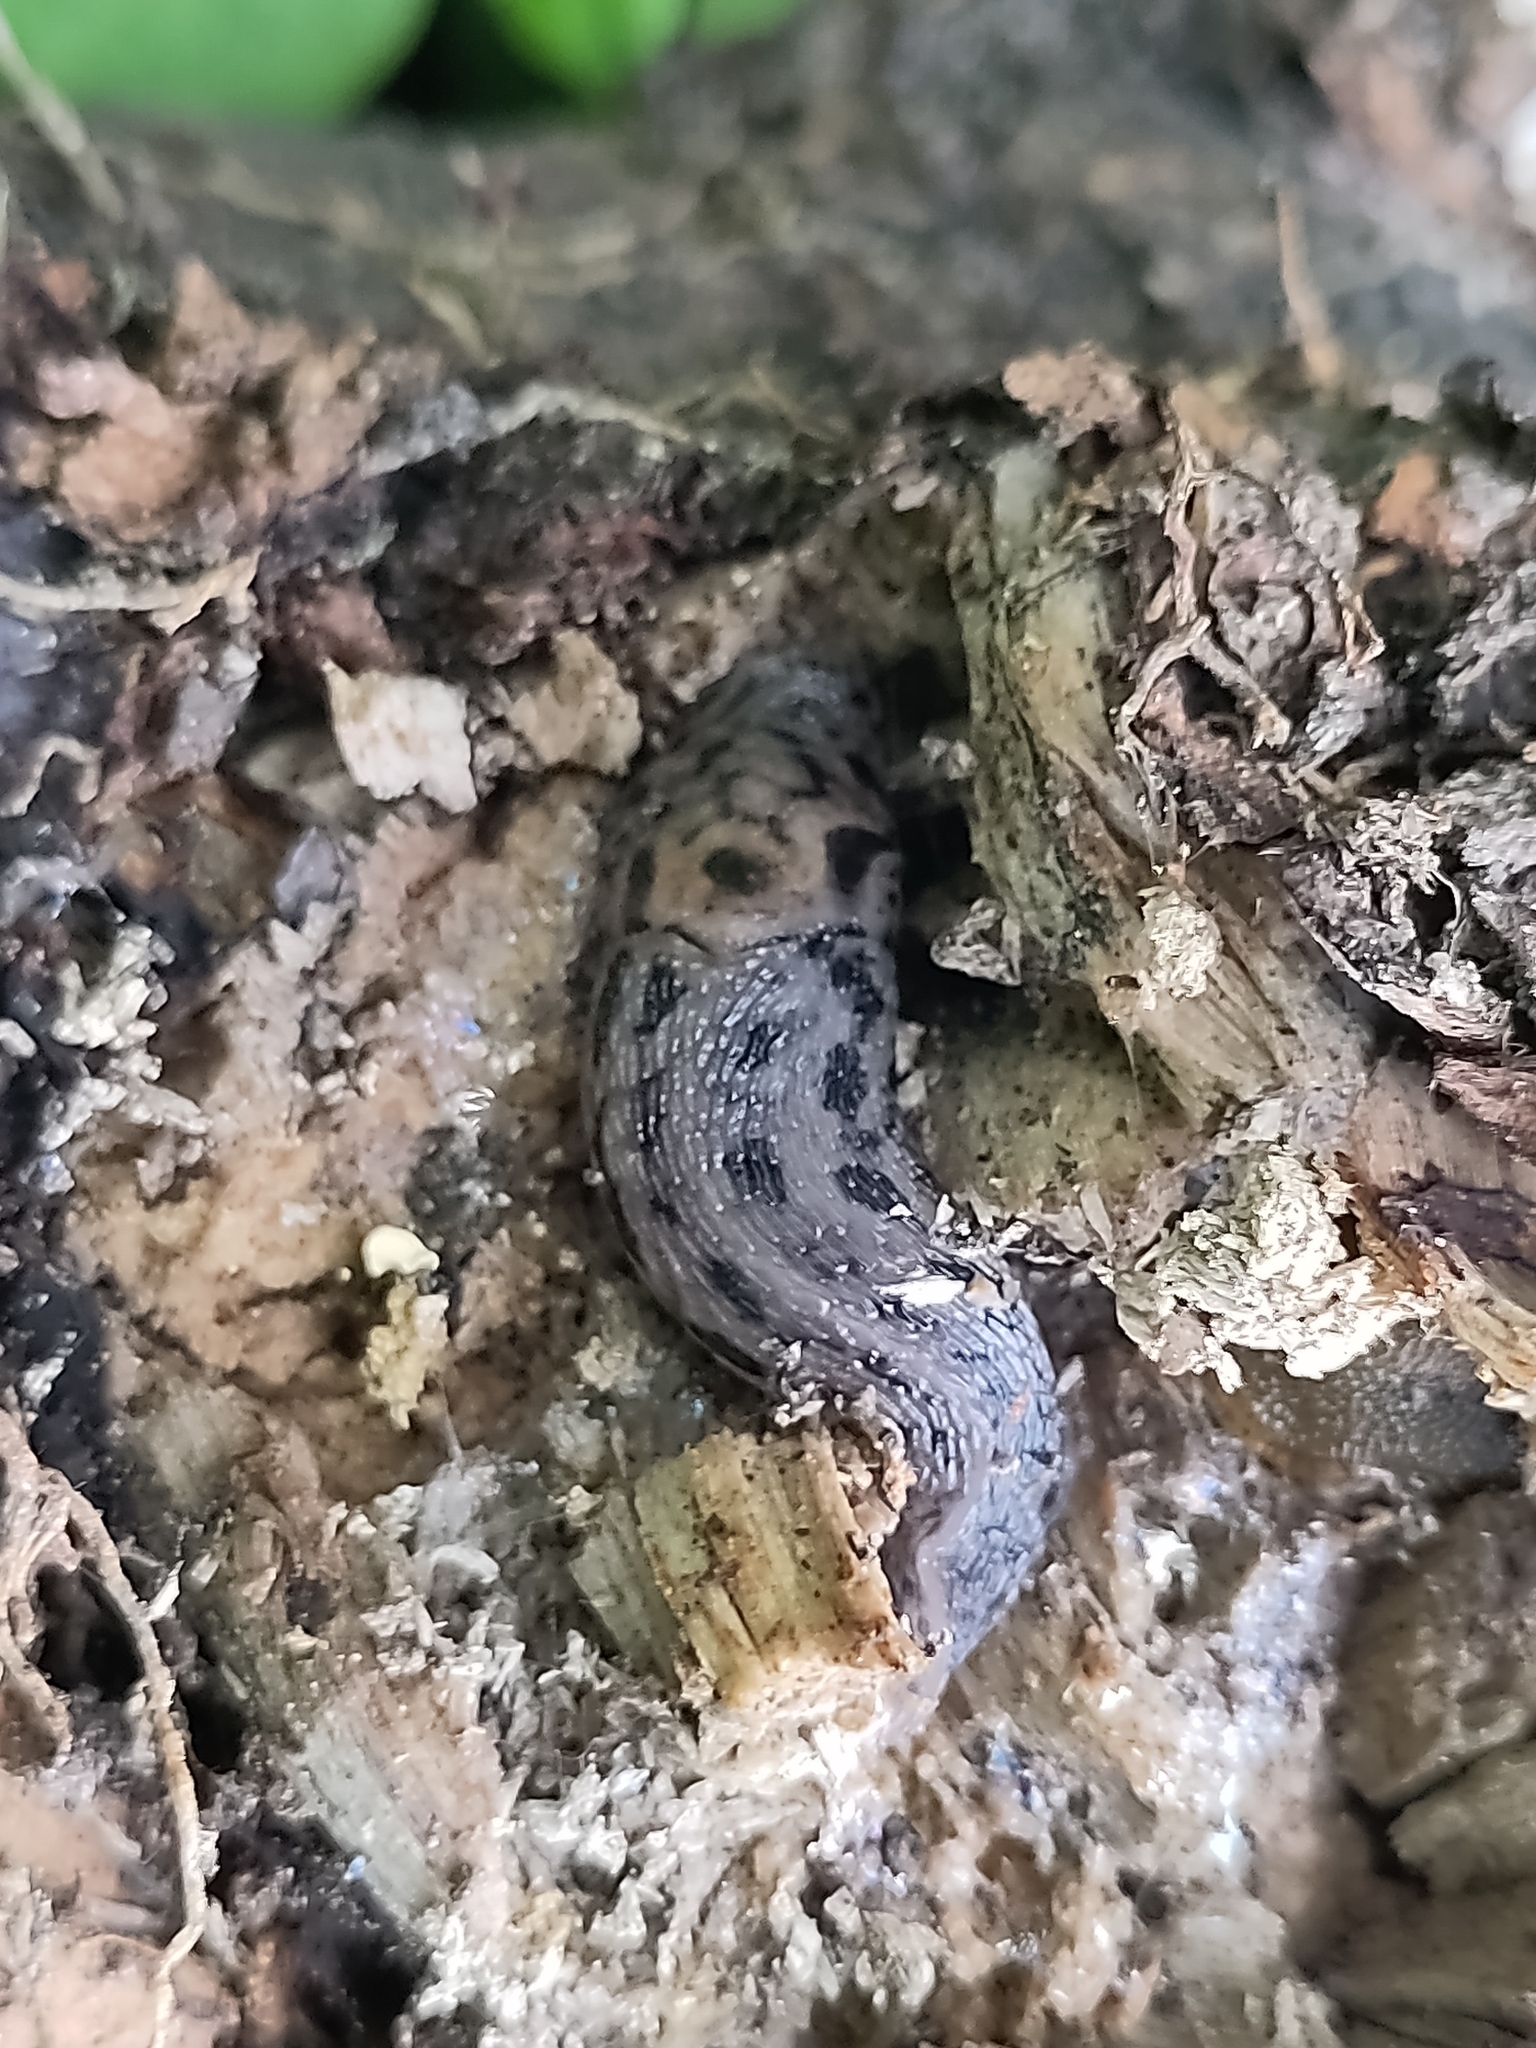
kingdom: Animalia
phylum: Mollusca
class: Gastropoda
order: Stylommatophora
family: Limacidae
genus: Limax
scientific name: Limax maximus
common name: Great grey slug
